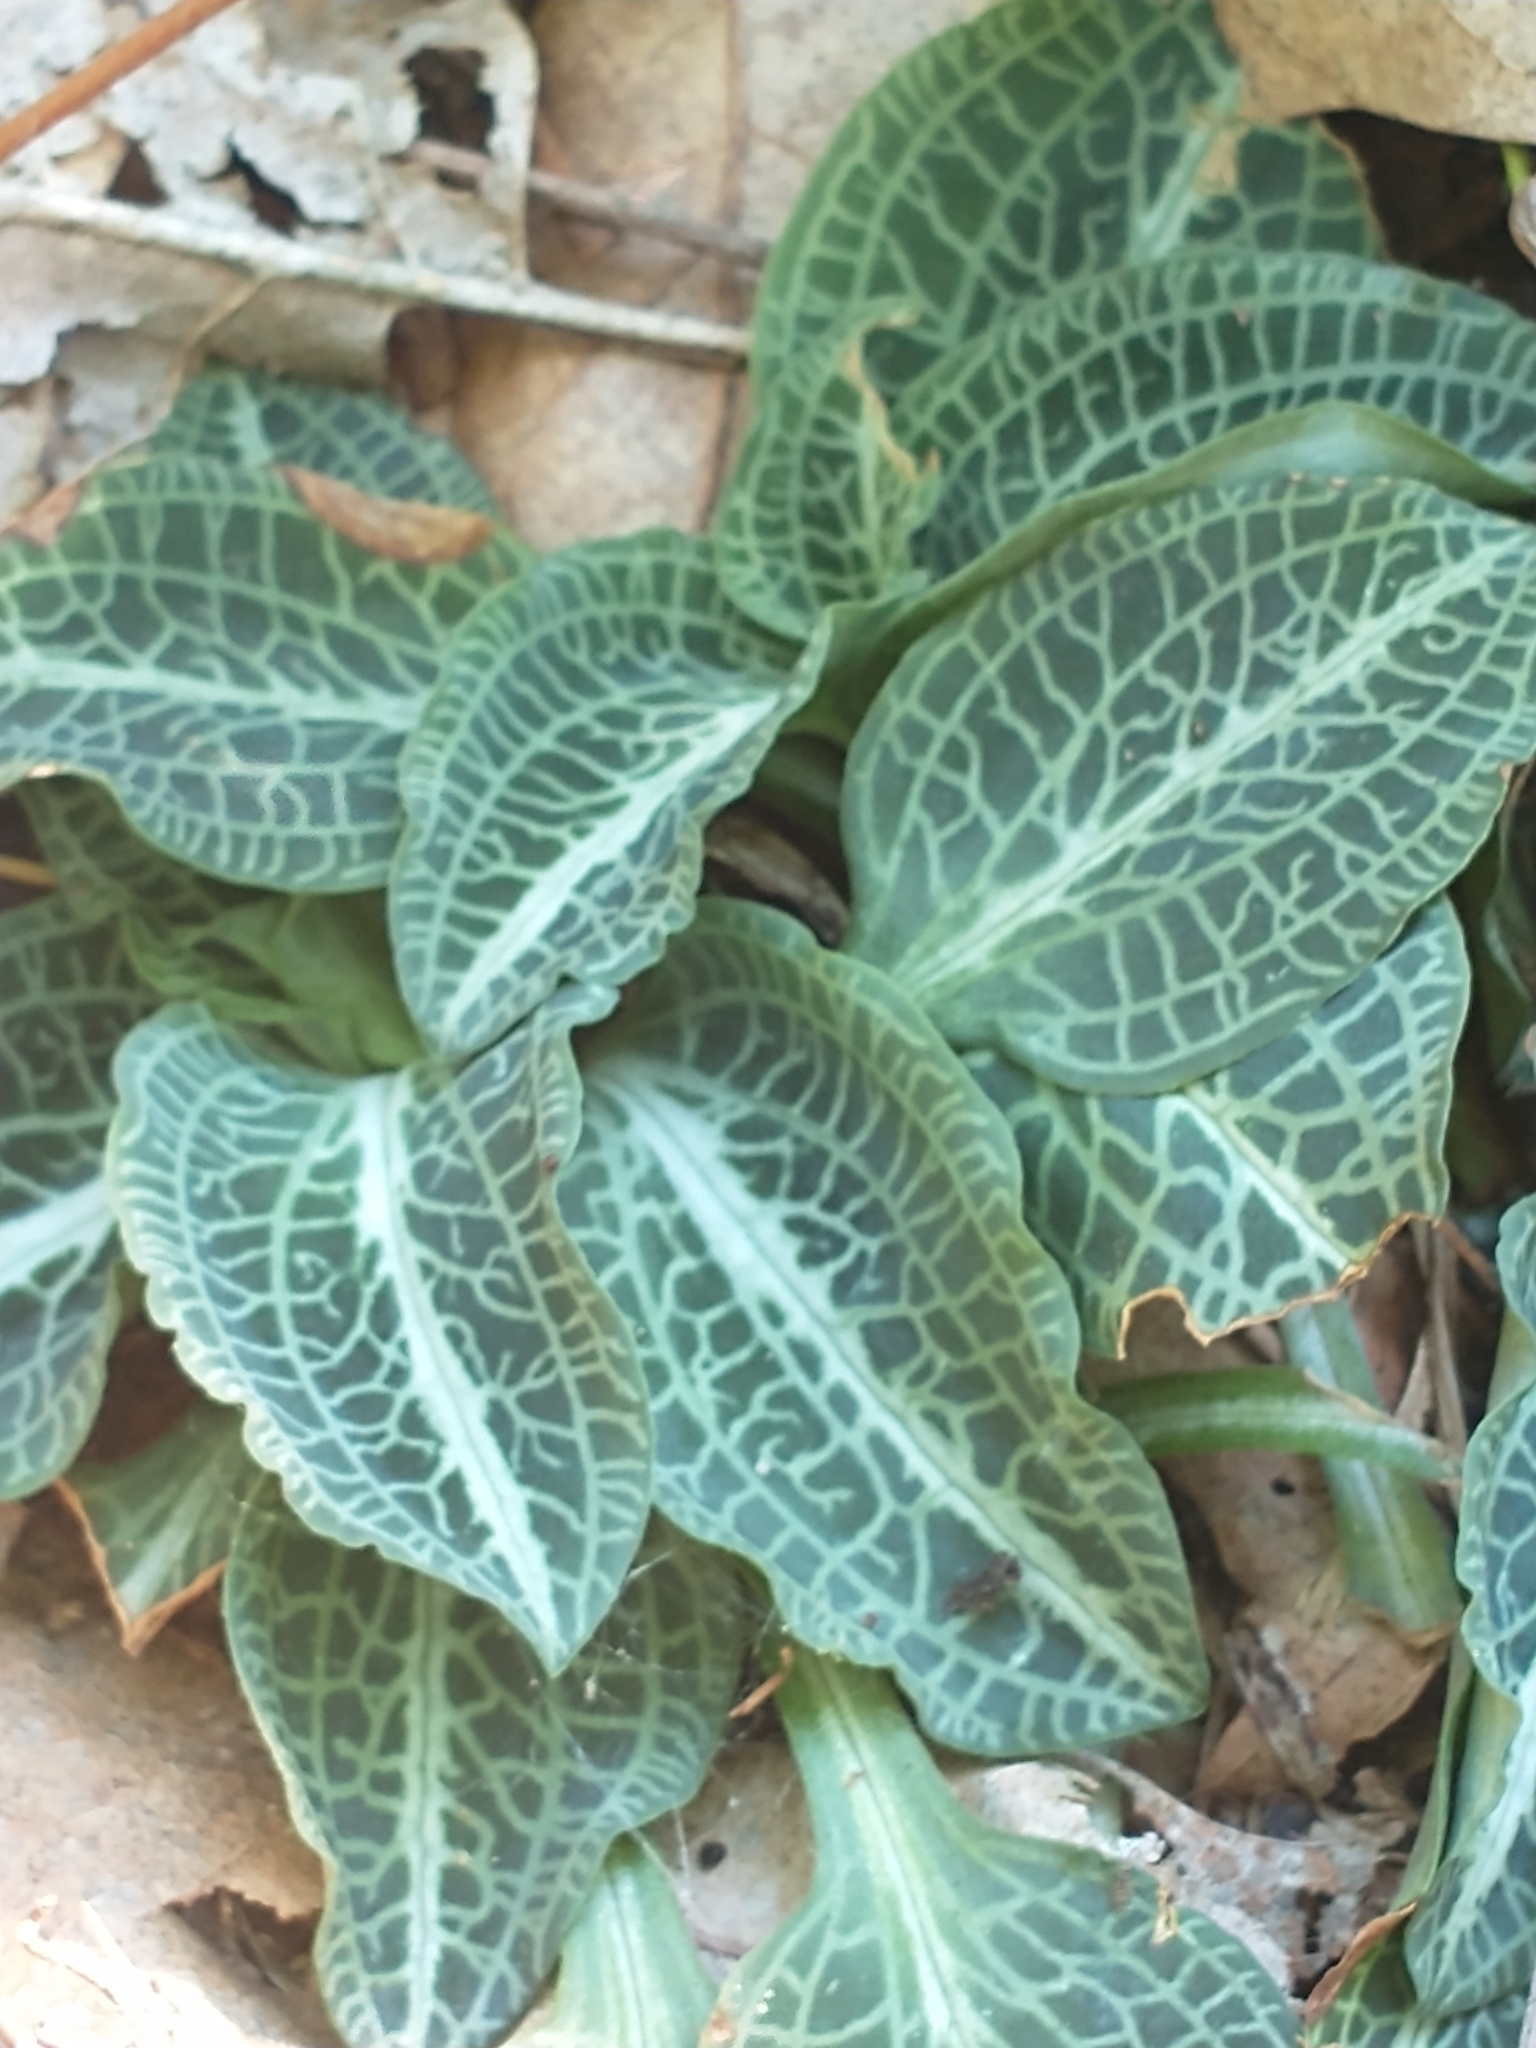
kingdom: Plantae
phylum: Tracheophyta
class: Liliopsida
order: Asparagales
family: Orchidaceae
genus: Goodyera
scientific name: Goodyera pubescens
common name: Downy rattlesnake-plantain
